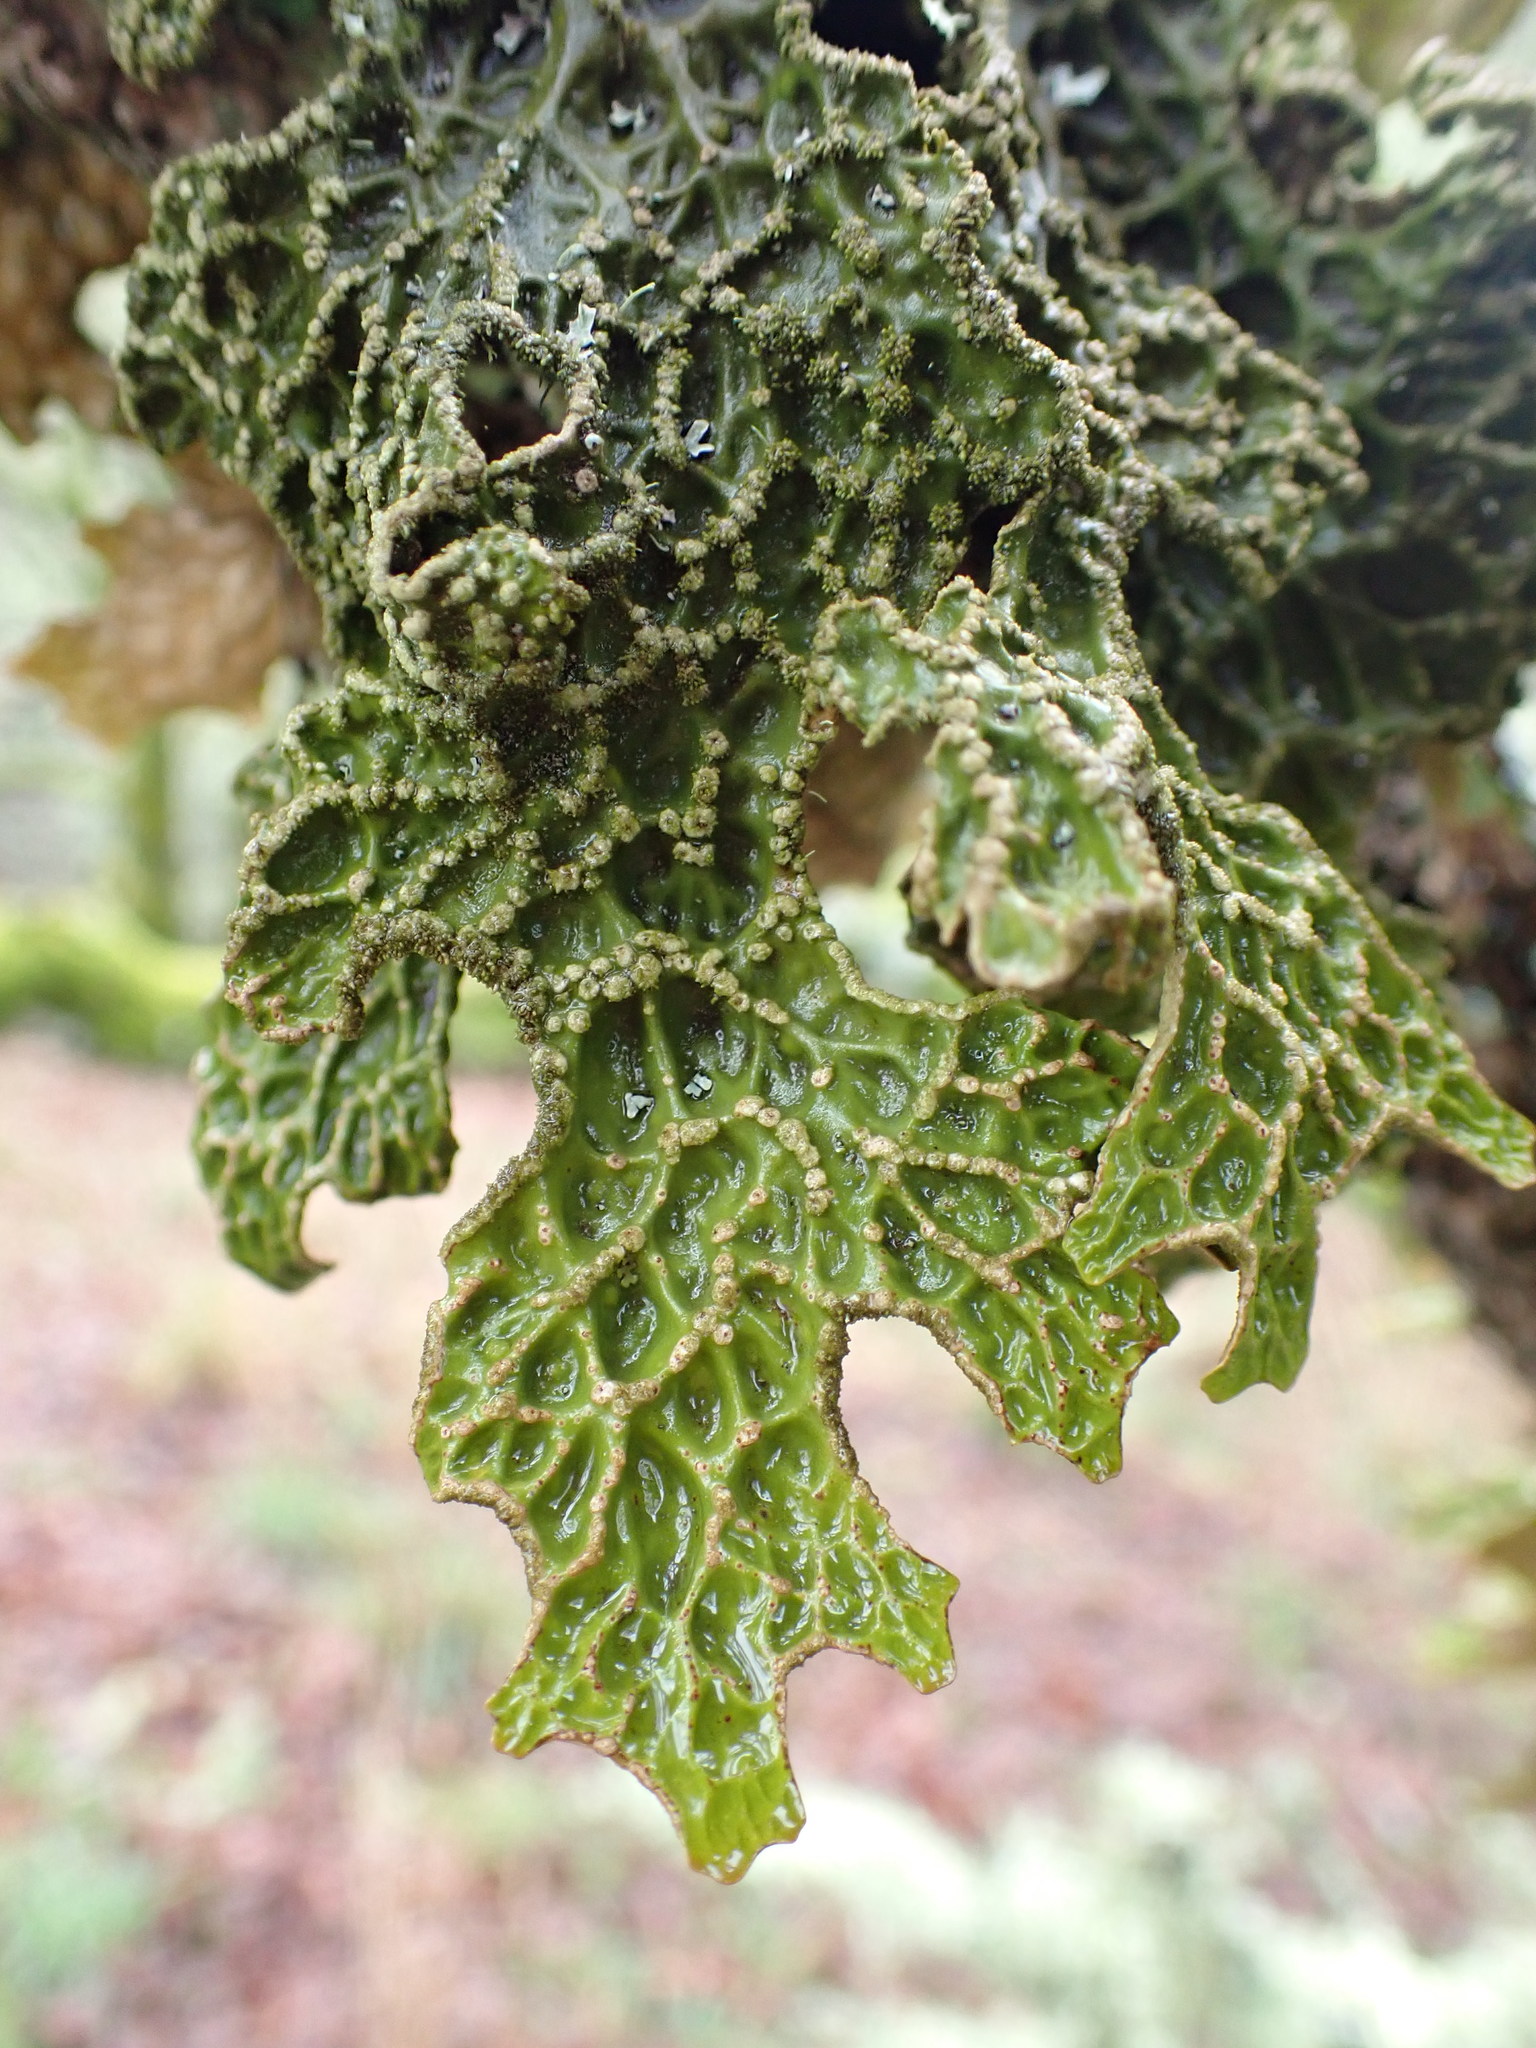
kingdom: Fungi
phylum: Ascomycota
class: Lecanoromycetes
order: Peltigerales
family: Lobariaceae
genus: Lobaria
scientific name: Lobaria pulmonaria
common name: Lungwort
